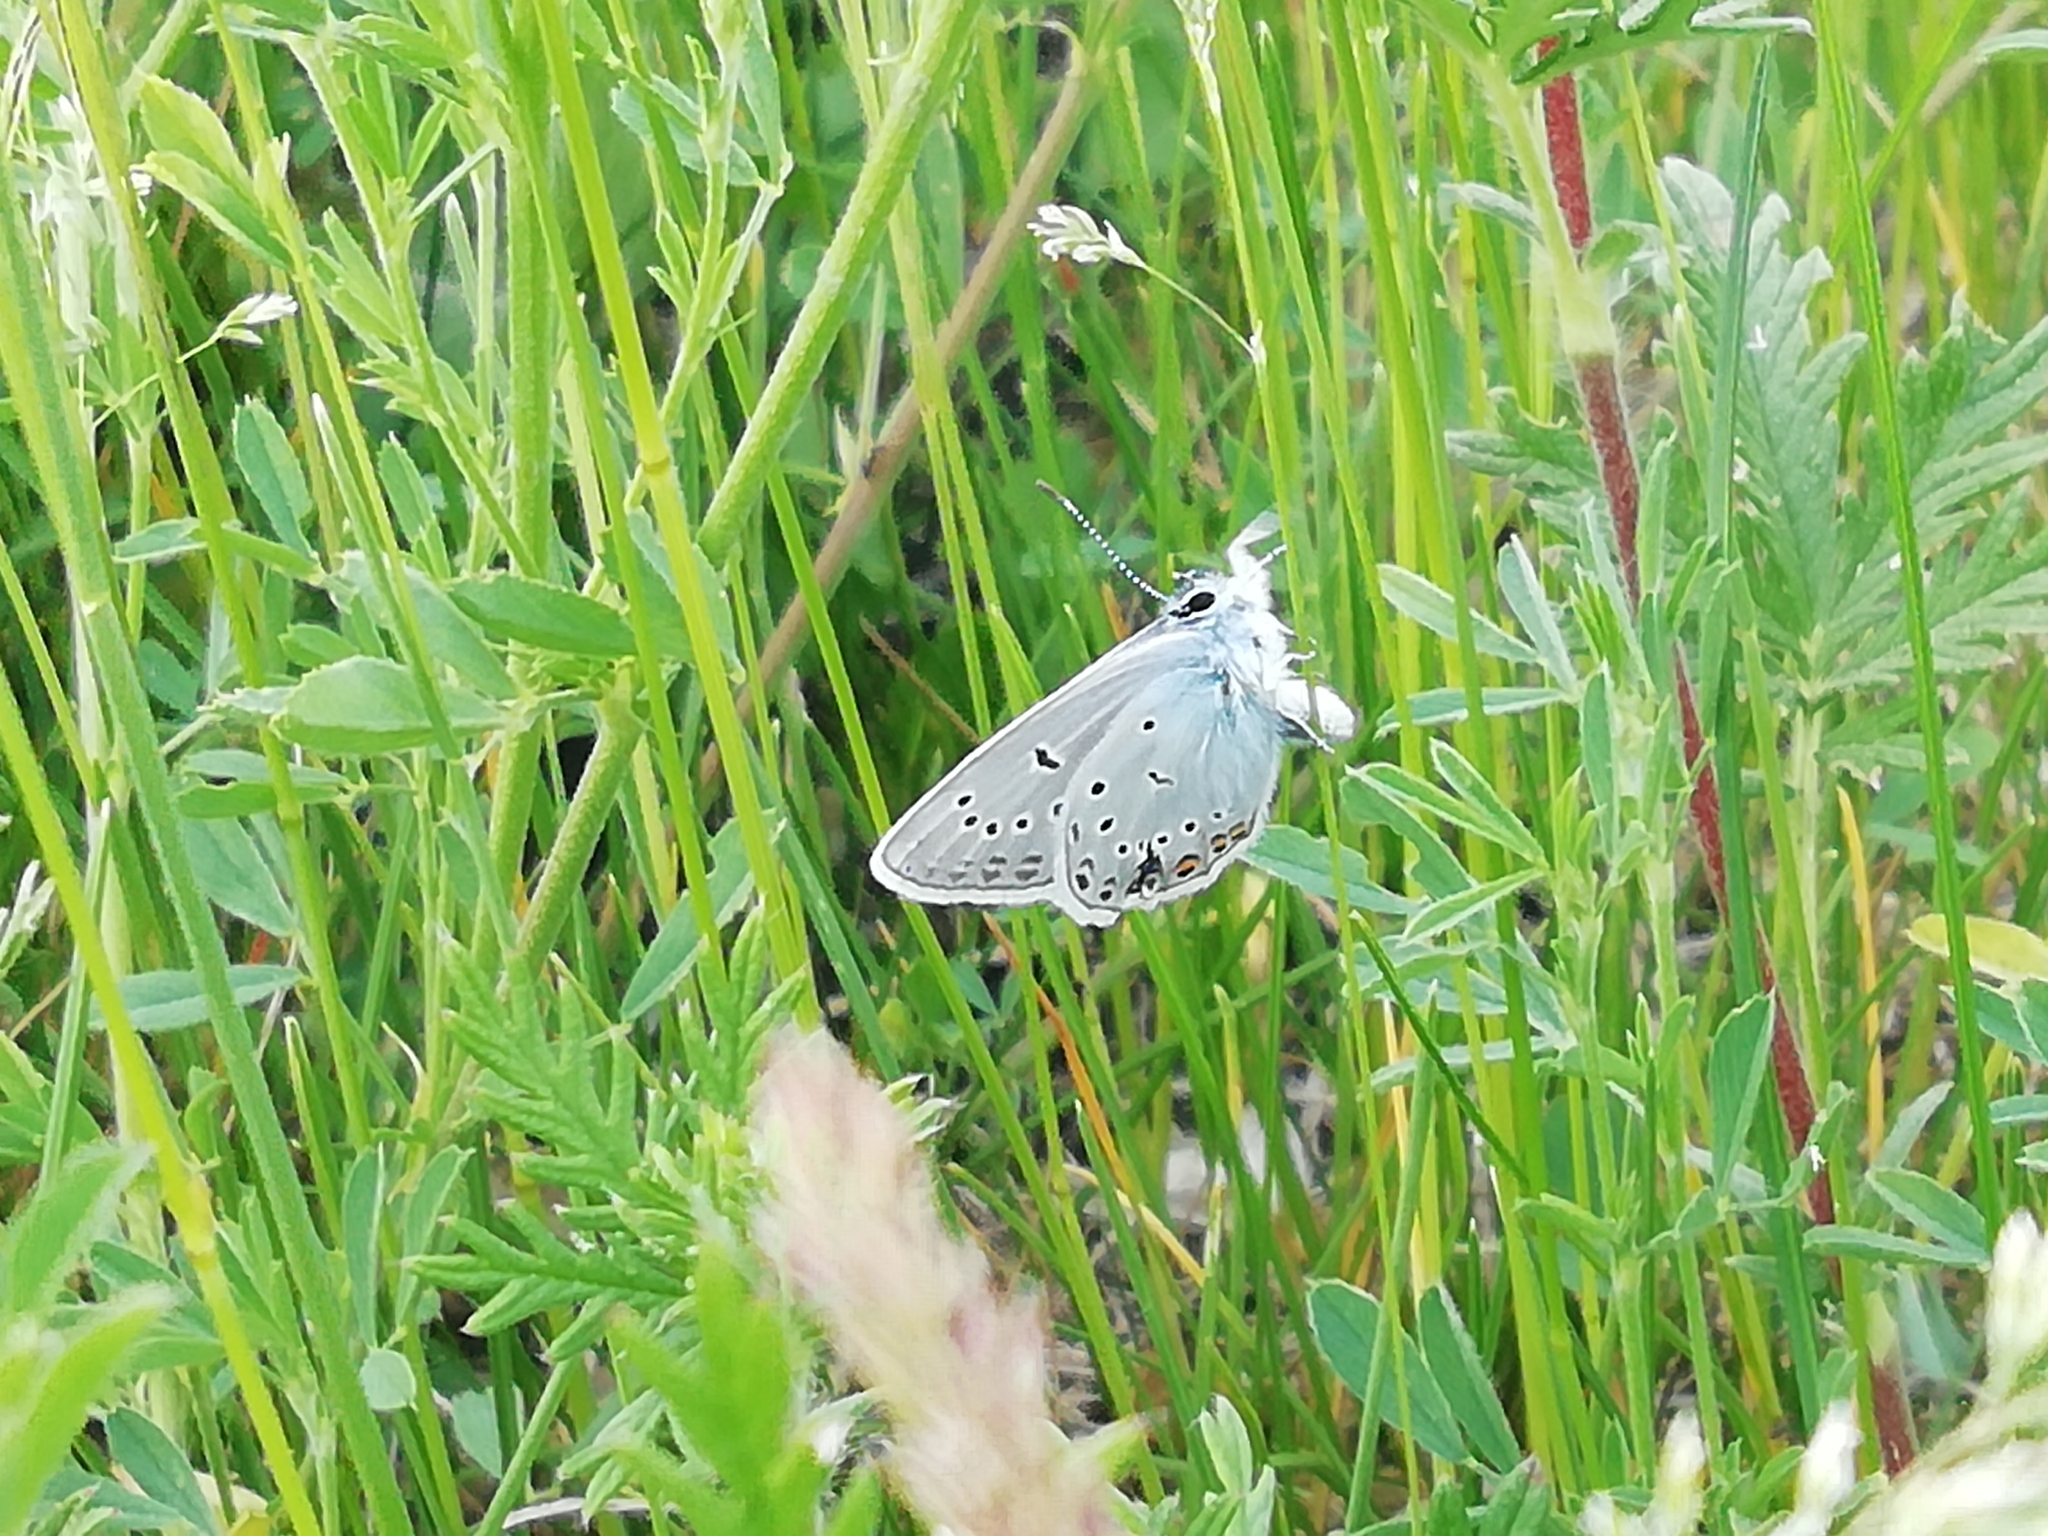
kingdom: Animalia
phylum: Arthropoda
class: Insecta
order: Lepidoptera
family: Lycaenidae
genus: Plebejus
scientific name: Plebejus amanda
